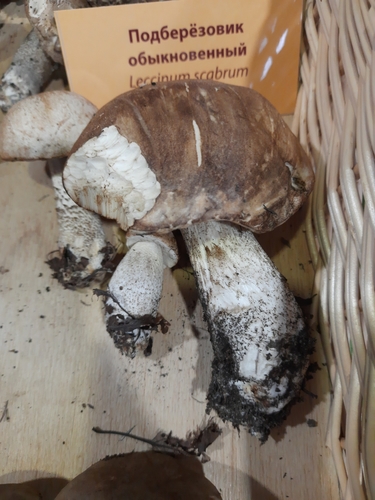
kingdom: Fungi
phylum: Basidiomycota
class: Agaricomycetes
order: Boletales
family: Boletaceae
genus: Leccinum
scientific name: Leccinum scabrum
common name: Blushing bolete
